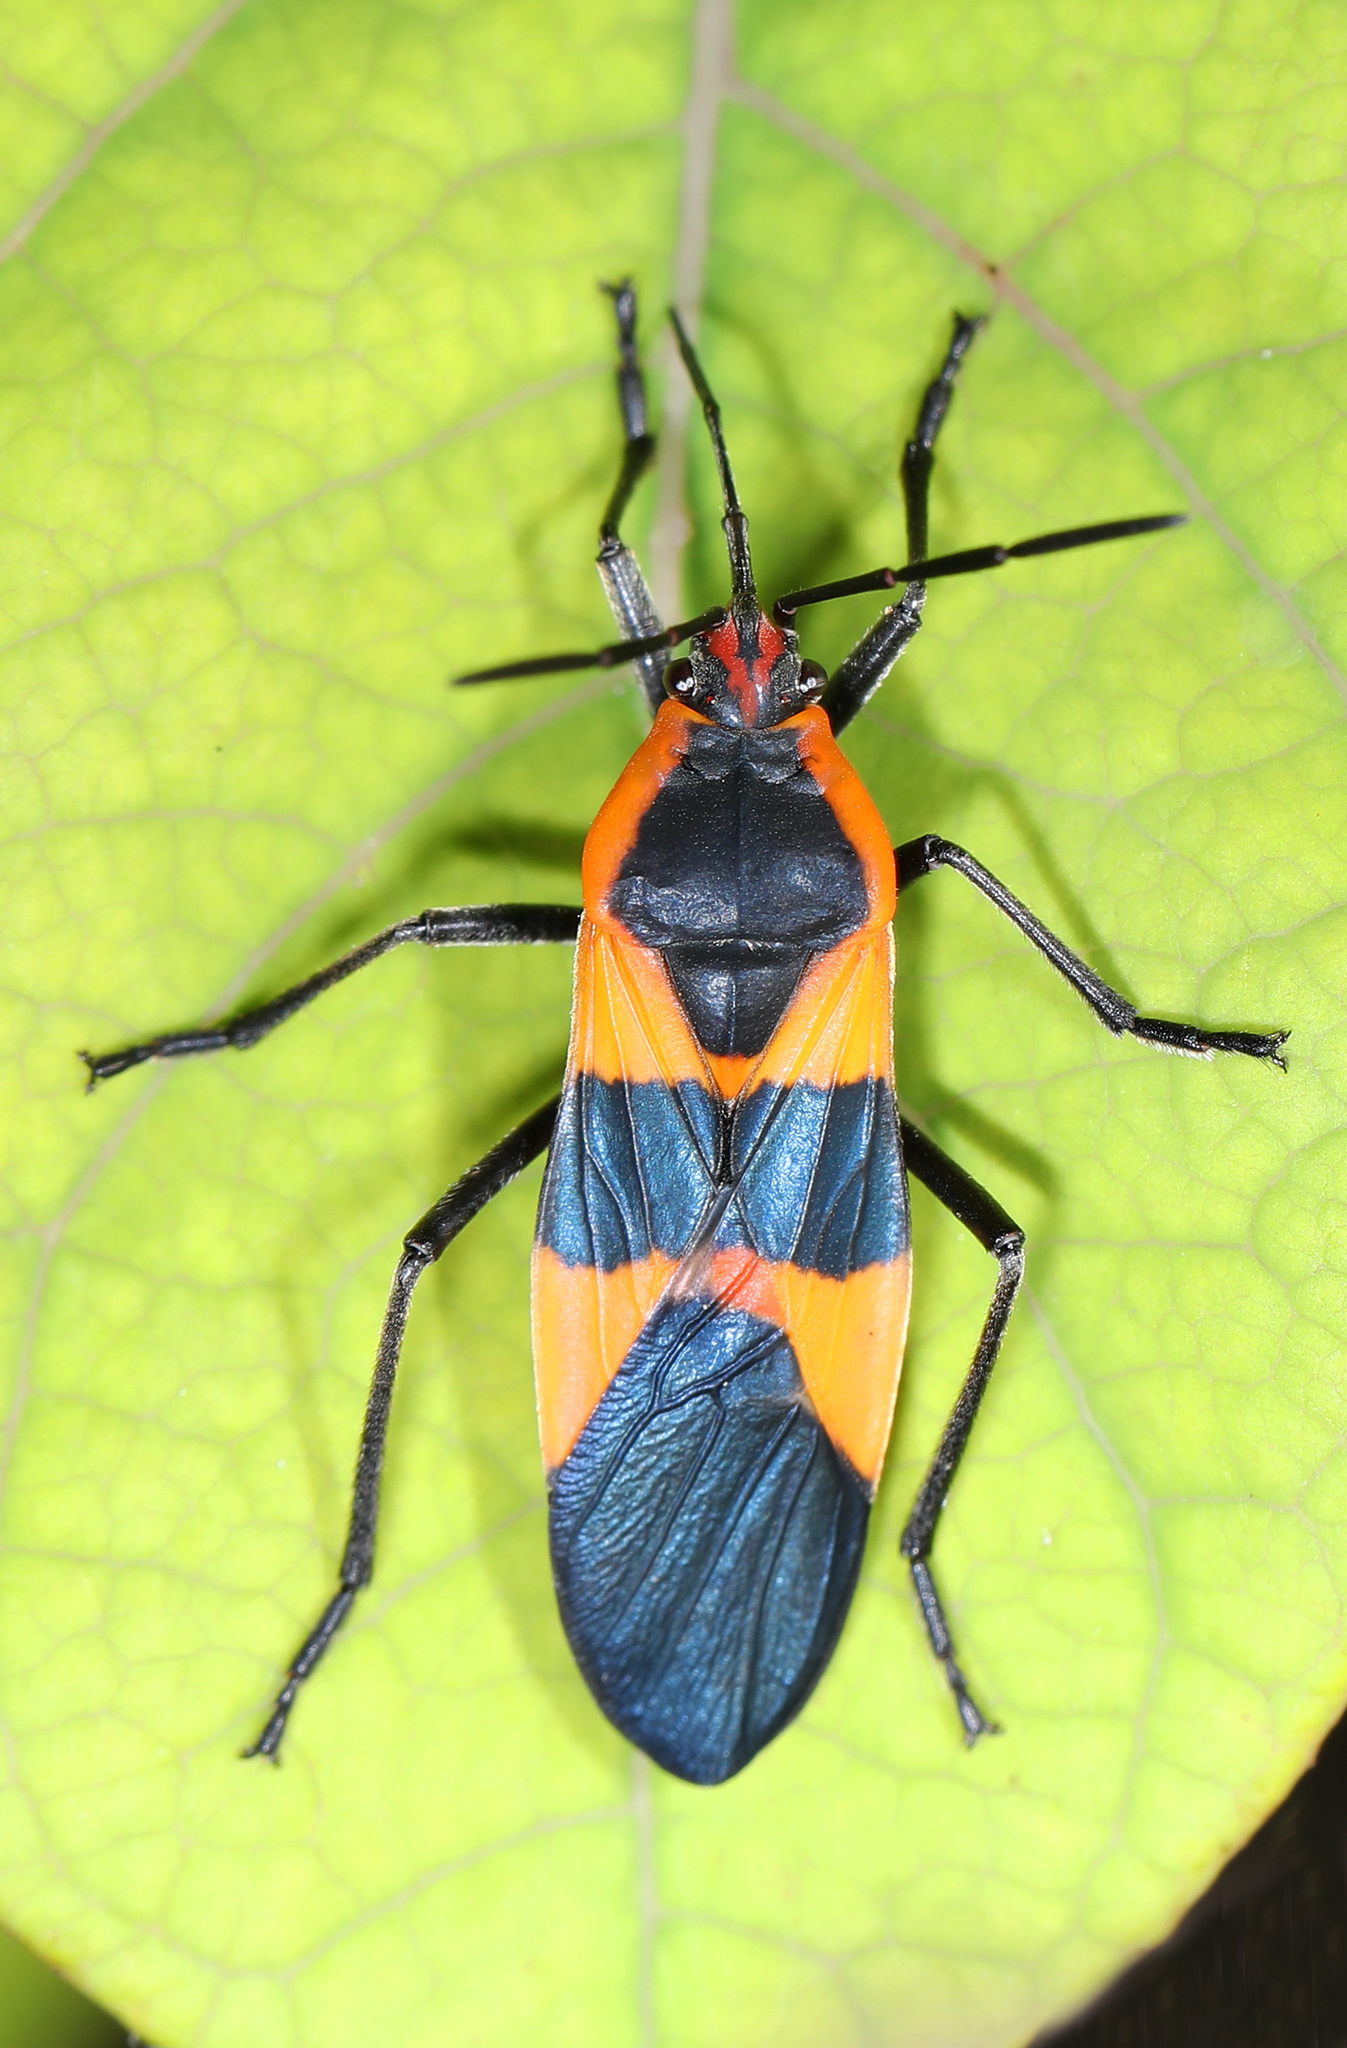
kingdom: Animalia
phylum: Arthropoda
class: Insecta
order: Hemiptera
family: Lygaeidae
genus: Oncopeltus
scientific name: Oncopeltus fasciatus
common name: Large milkweed bug
